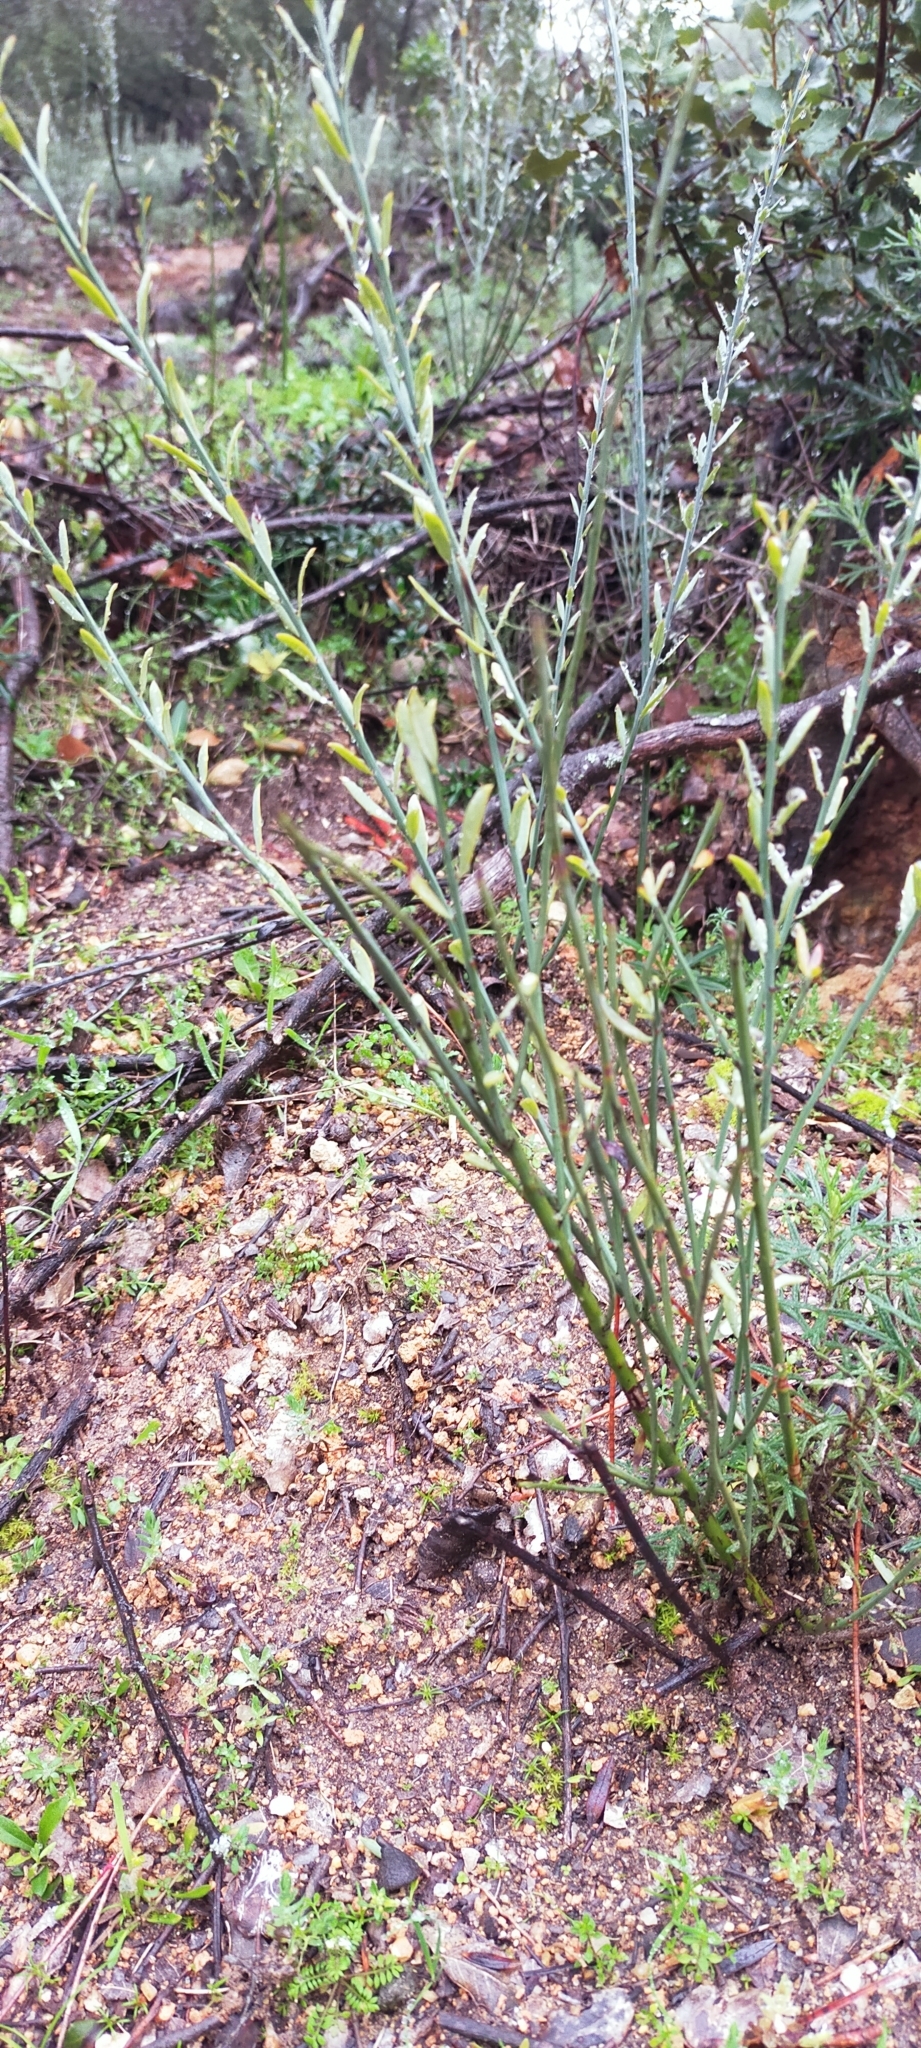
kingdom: Plantae
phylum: Tracheophyta
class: Magnoliopsida
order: Santalales
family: Santalaceae
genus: Osyris
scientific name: Osyris alba
